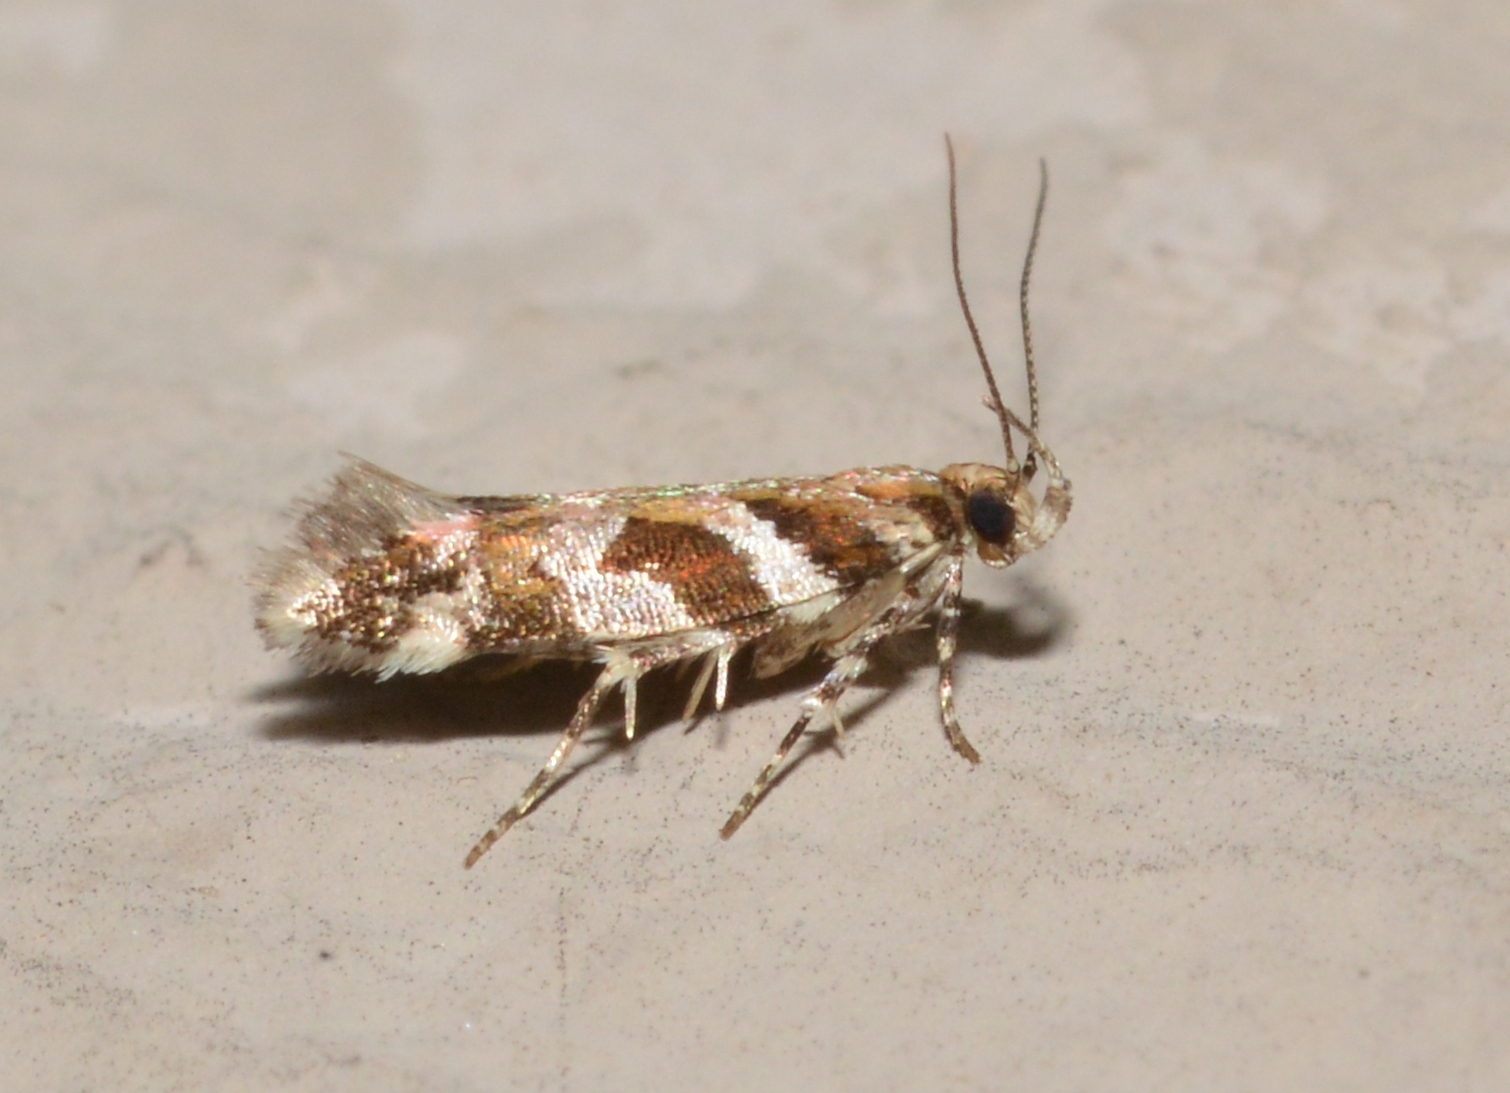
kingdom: Animalia
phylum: Arthropoda
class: Insecta
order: Lepidoptera
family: Gelechiidae
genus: Aristotelia
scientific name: Aristotelia roseosuffusella
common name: Pink-washed aristotelia moth
